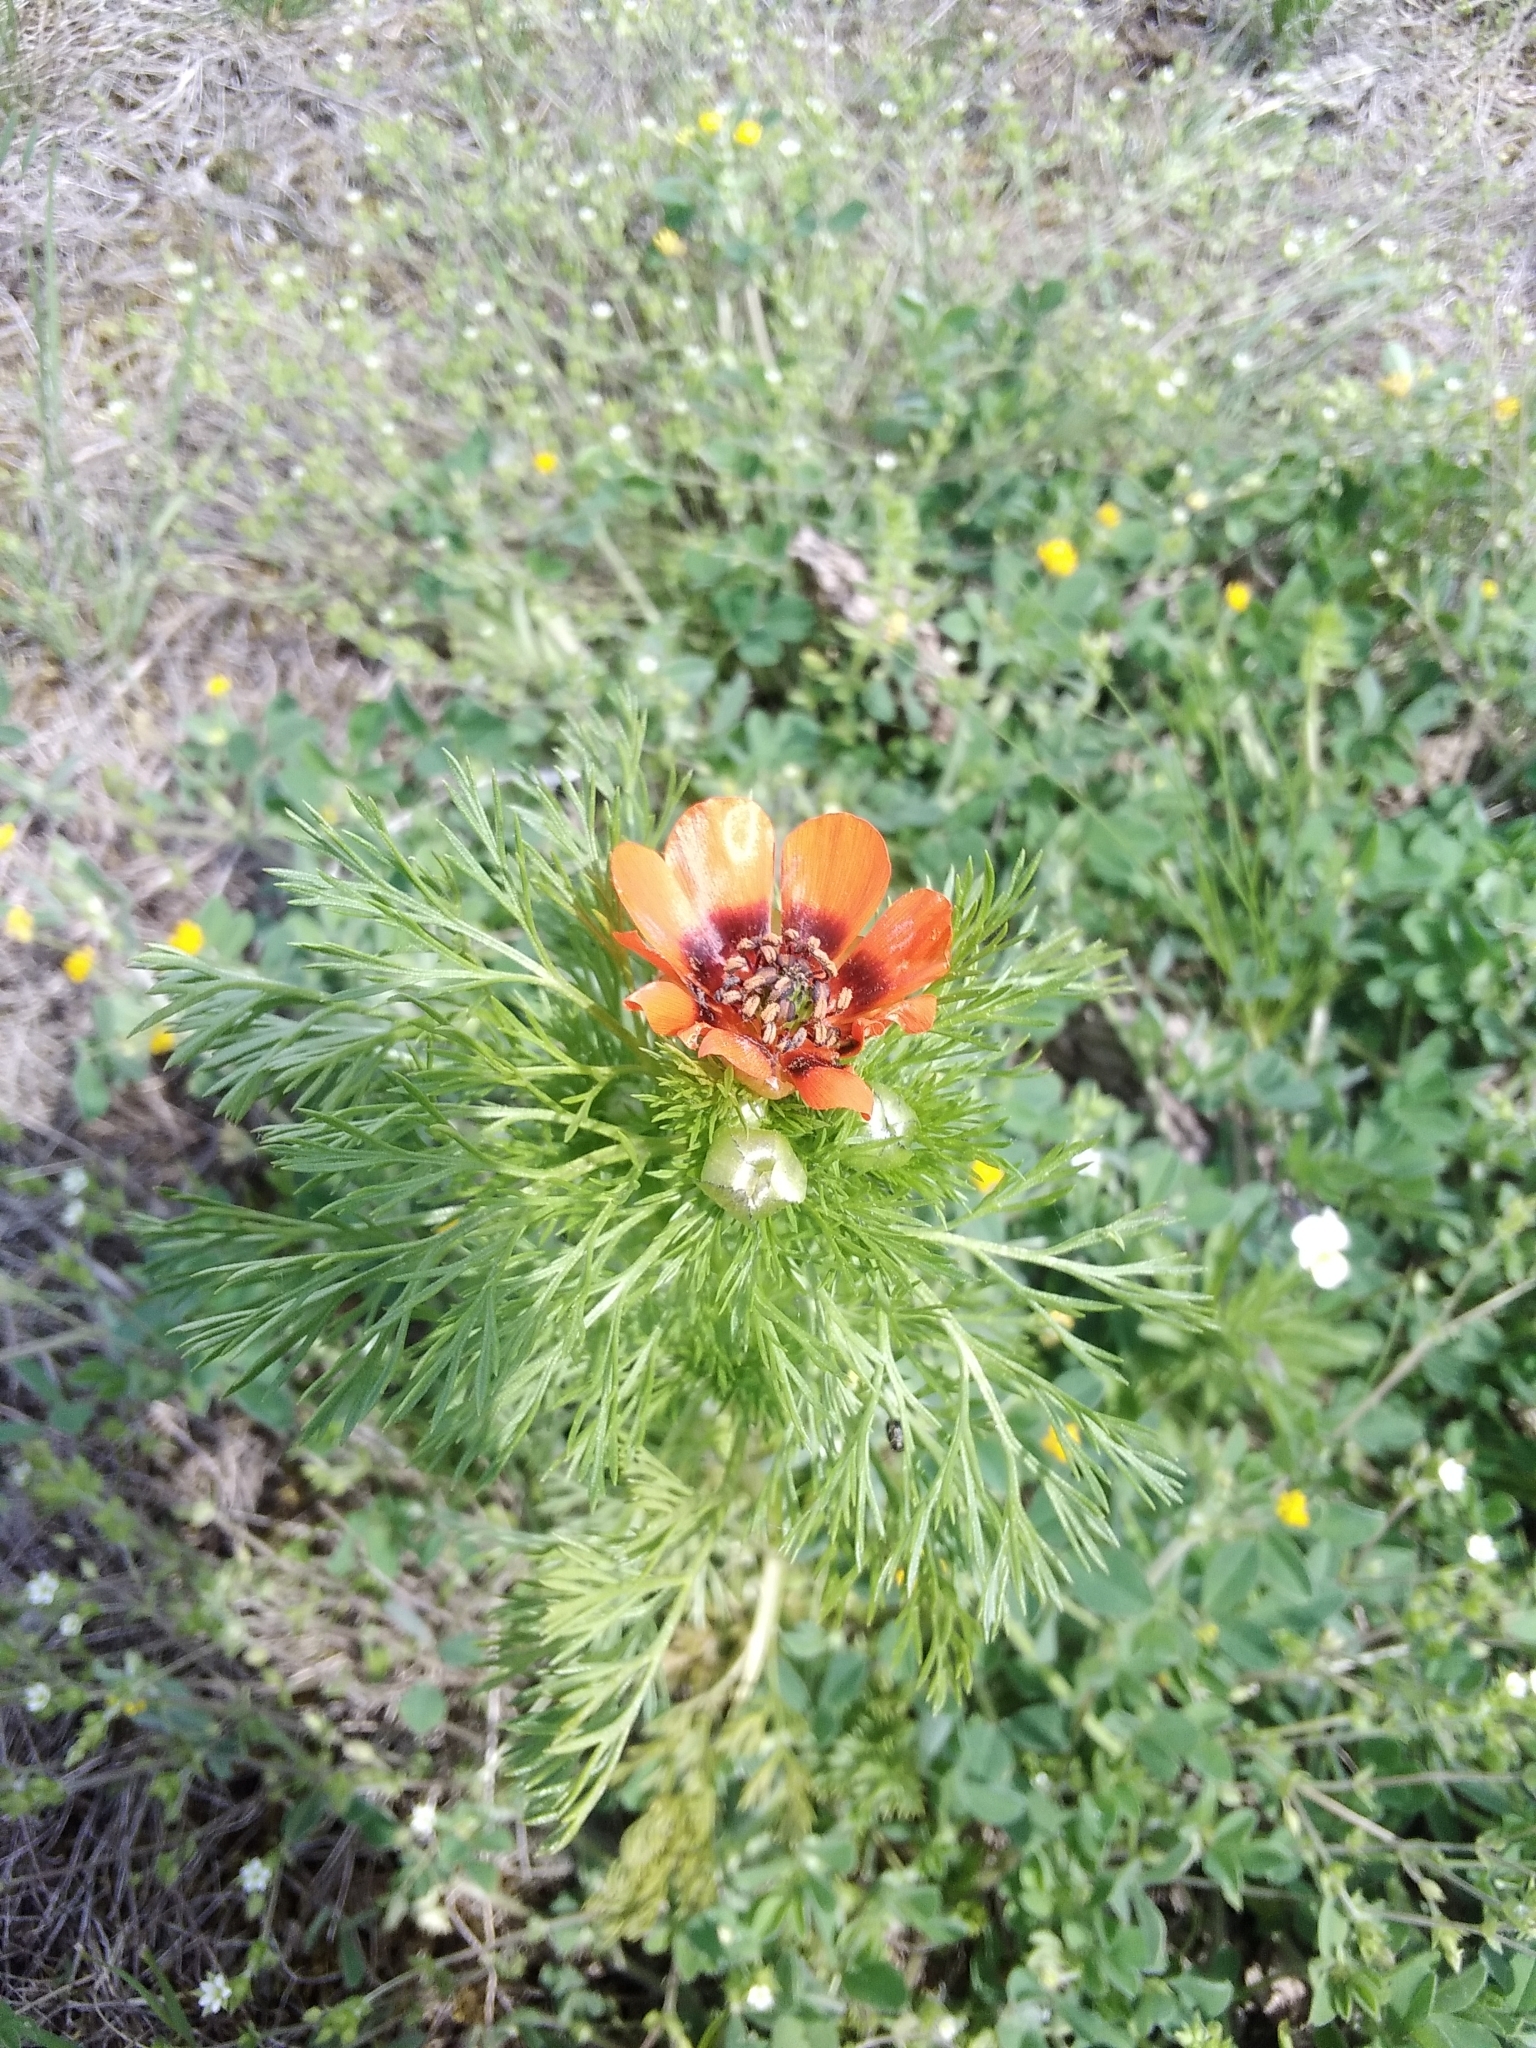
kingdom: Plantae
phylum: Tracheophyta
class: Magnoliopsida
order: Ranunculales
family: Ranunculaceae
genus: Adonis
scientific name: Adonis aestivalis
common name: Summer pheasant's-eye
